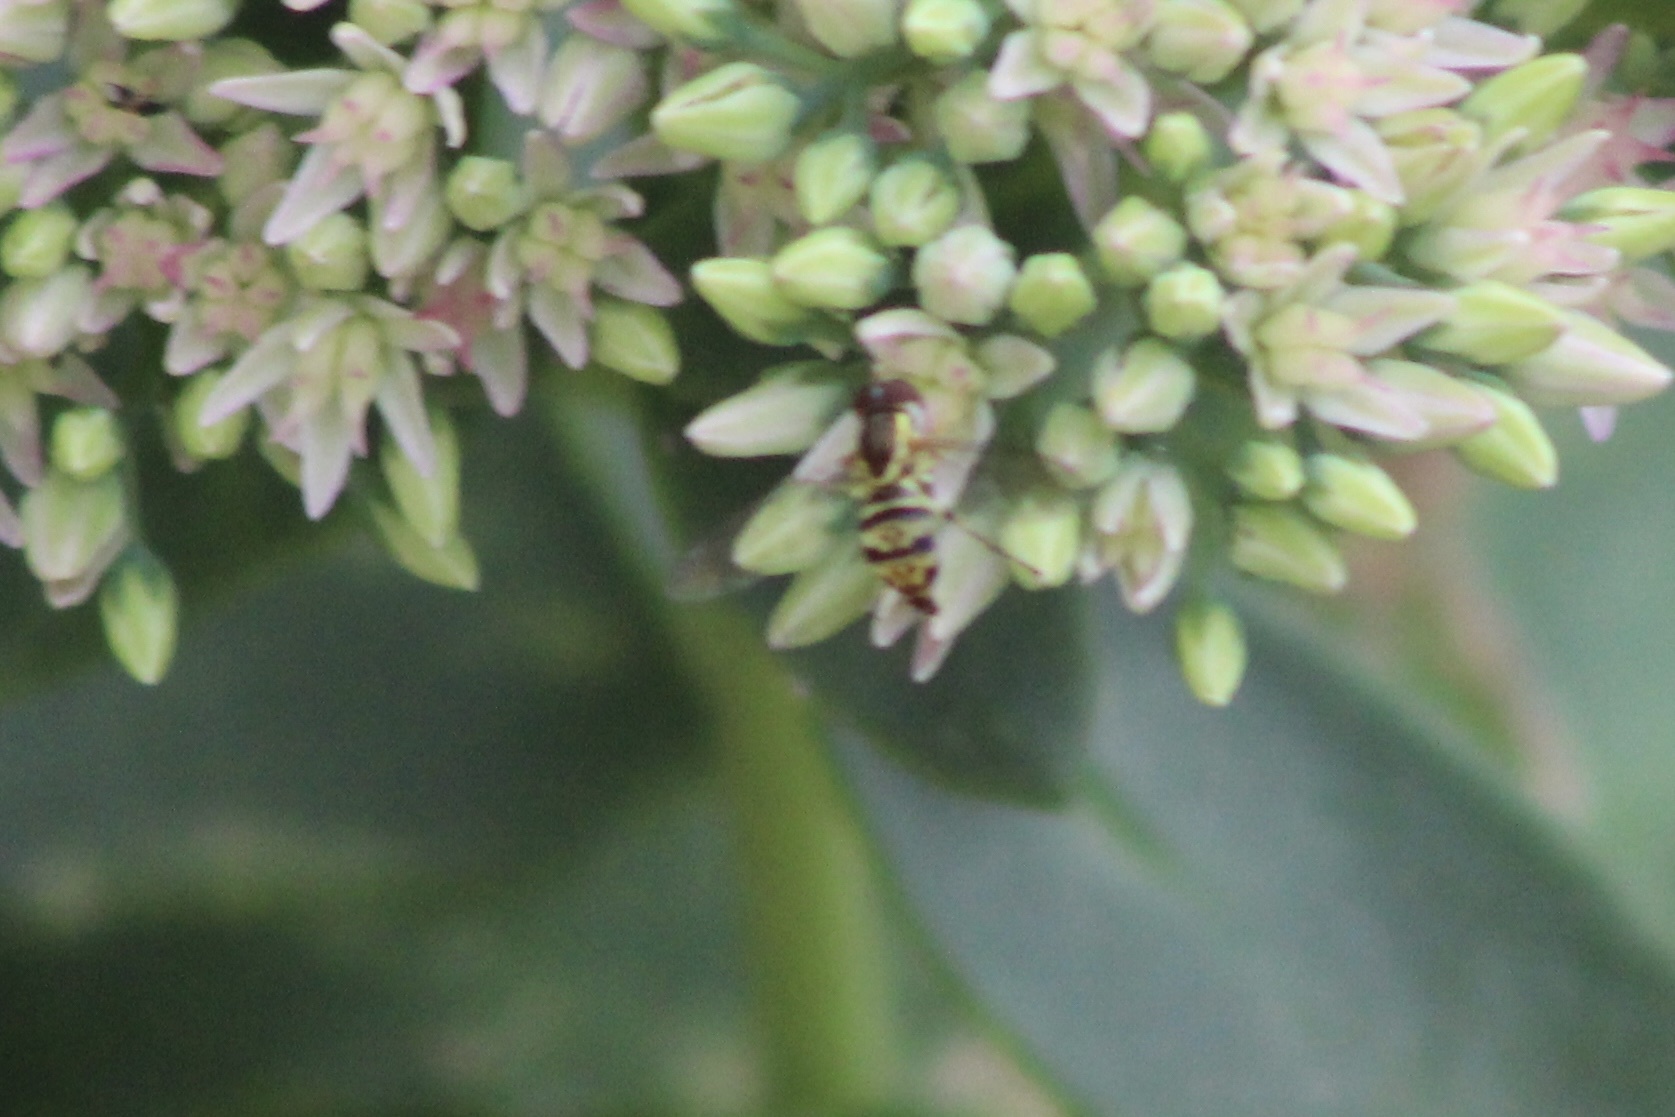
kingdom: Animalia
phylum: Arthropoda
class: Insecta
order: Diptera
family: Syrphidae
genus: Toxomerus
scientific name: Toxomerus geminatus
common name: Eastern calligrapher
